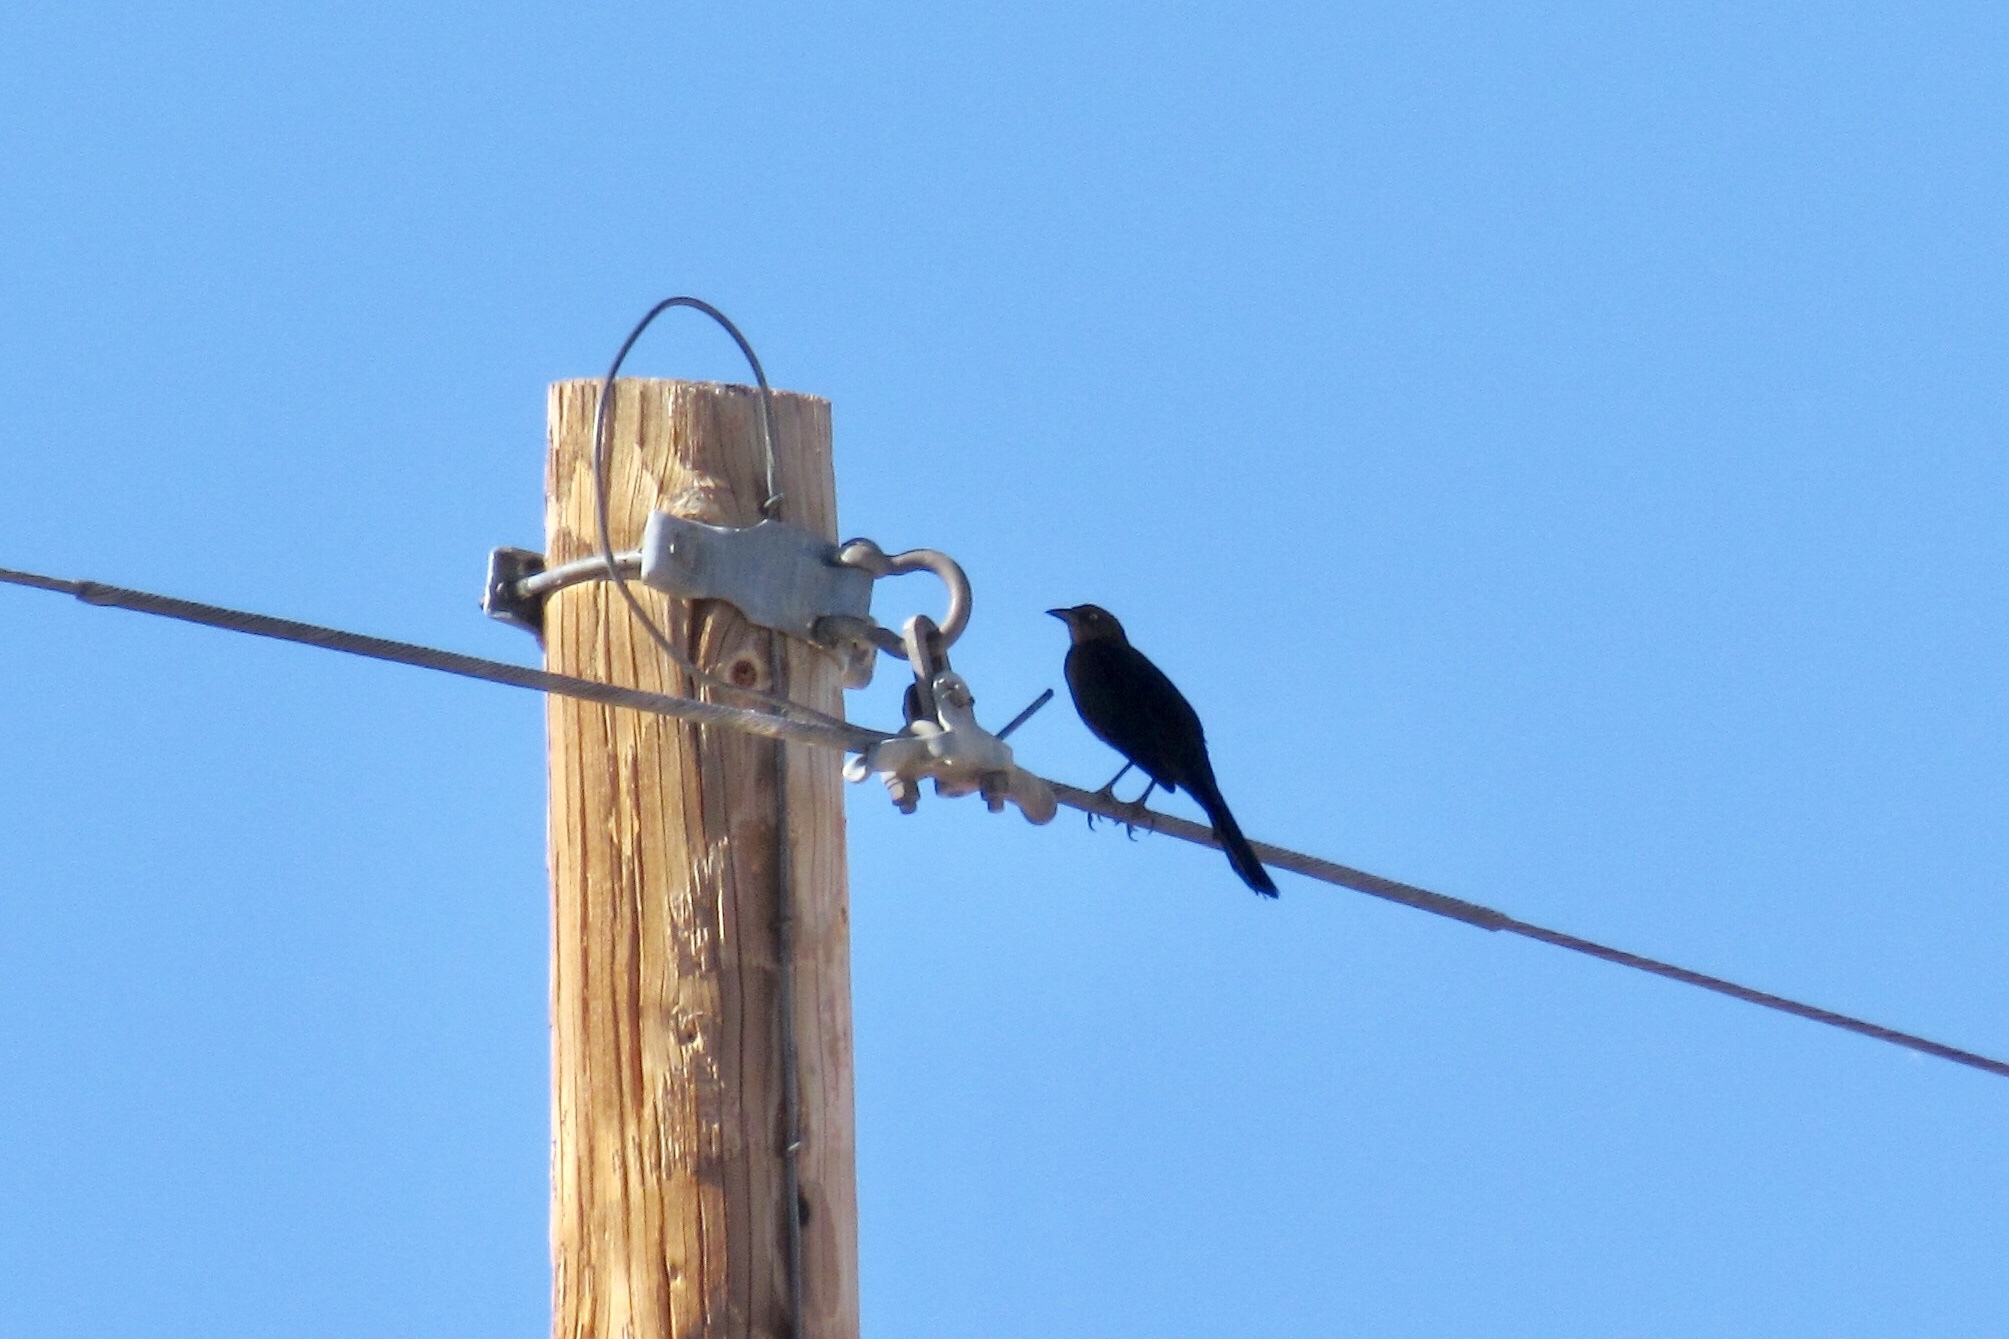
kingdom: Animalia
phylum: Chordata
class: Aves
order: Passeriformes
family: Icteridae
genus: Quiscalus
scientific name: Quiscalus mexicanus
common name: Great-tailed grackle
